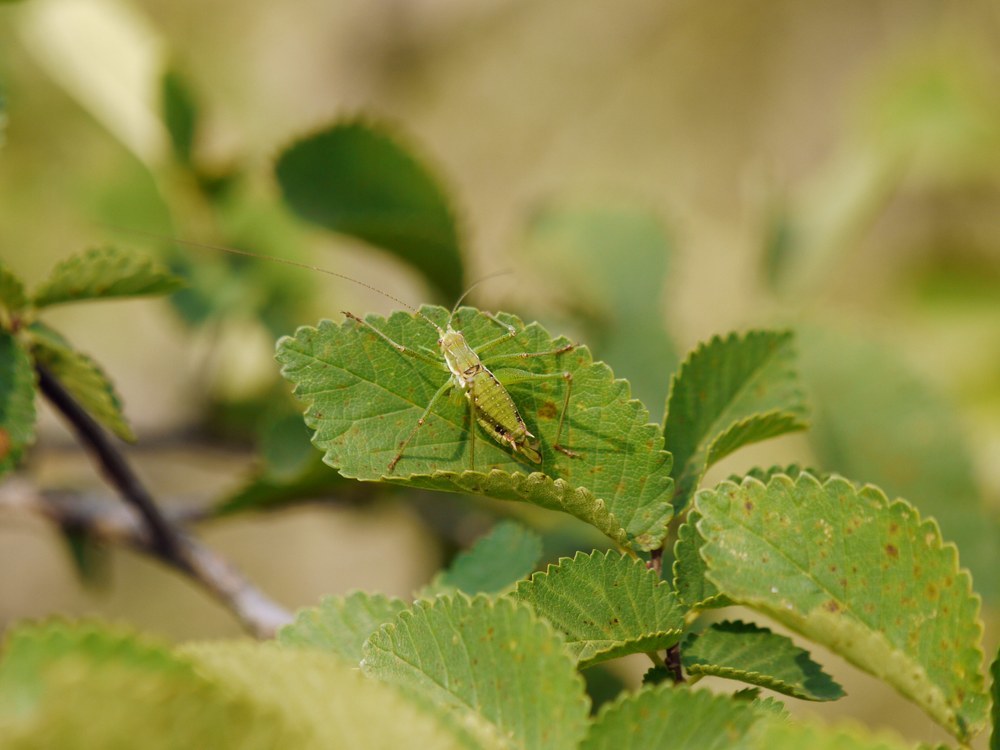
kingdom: Animalia
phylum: Arthropoda
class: Insecta
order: Orthoptera
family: Tettigoniidae
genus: Leptophyes
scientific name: Leptophyes albovittata
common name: Striped bush-cricket
